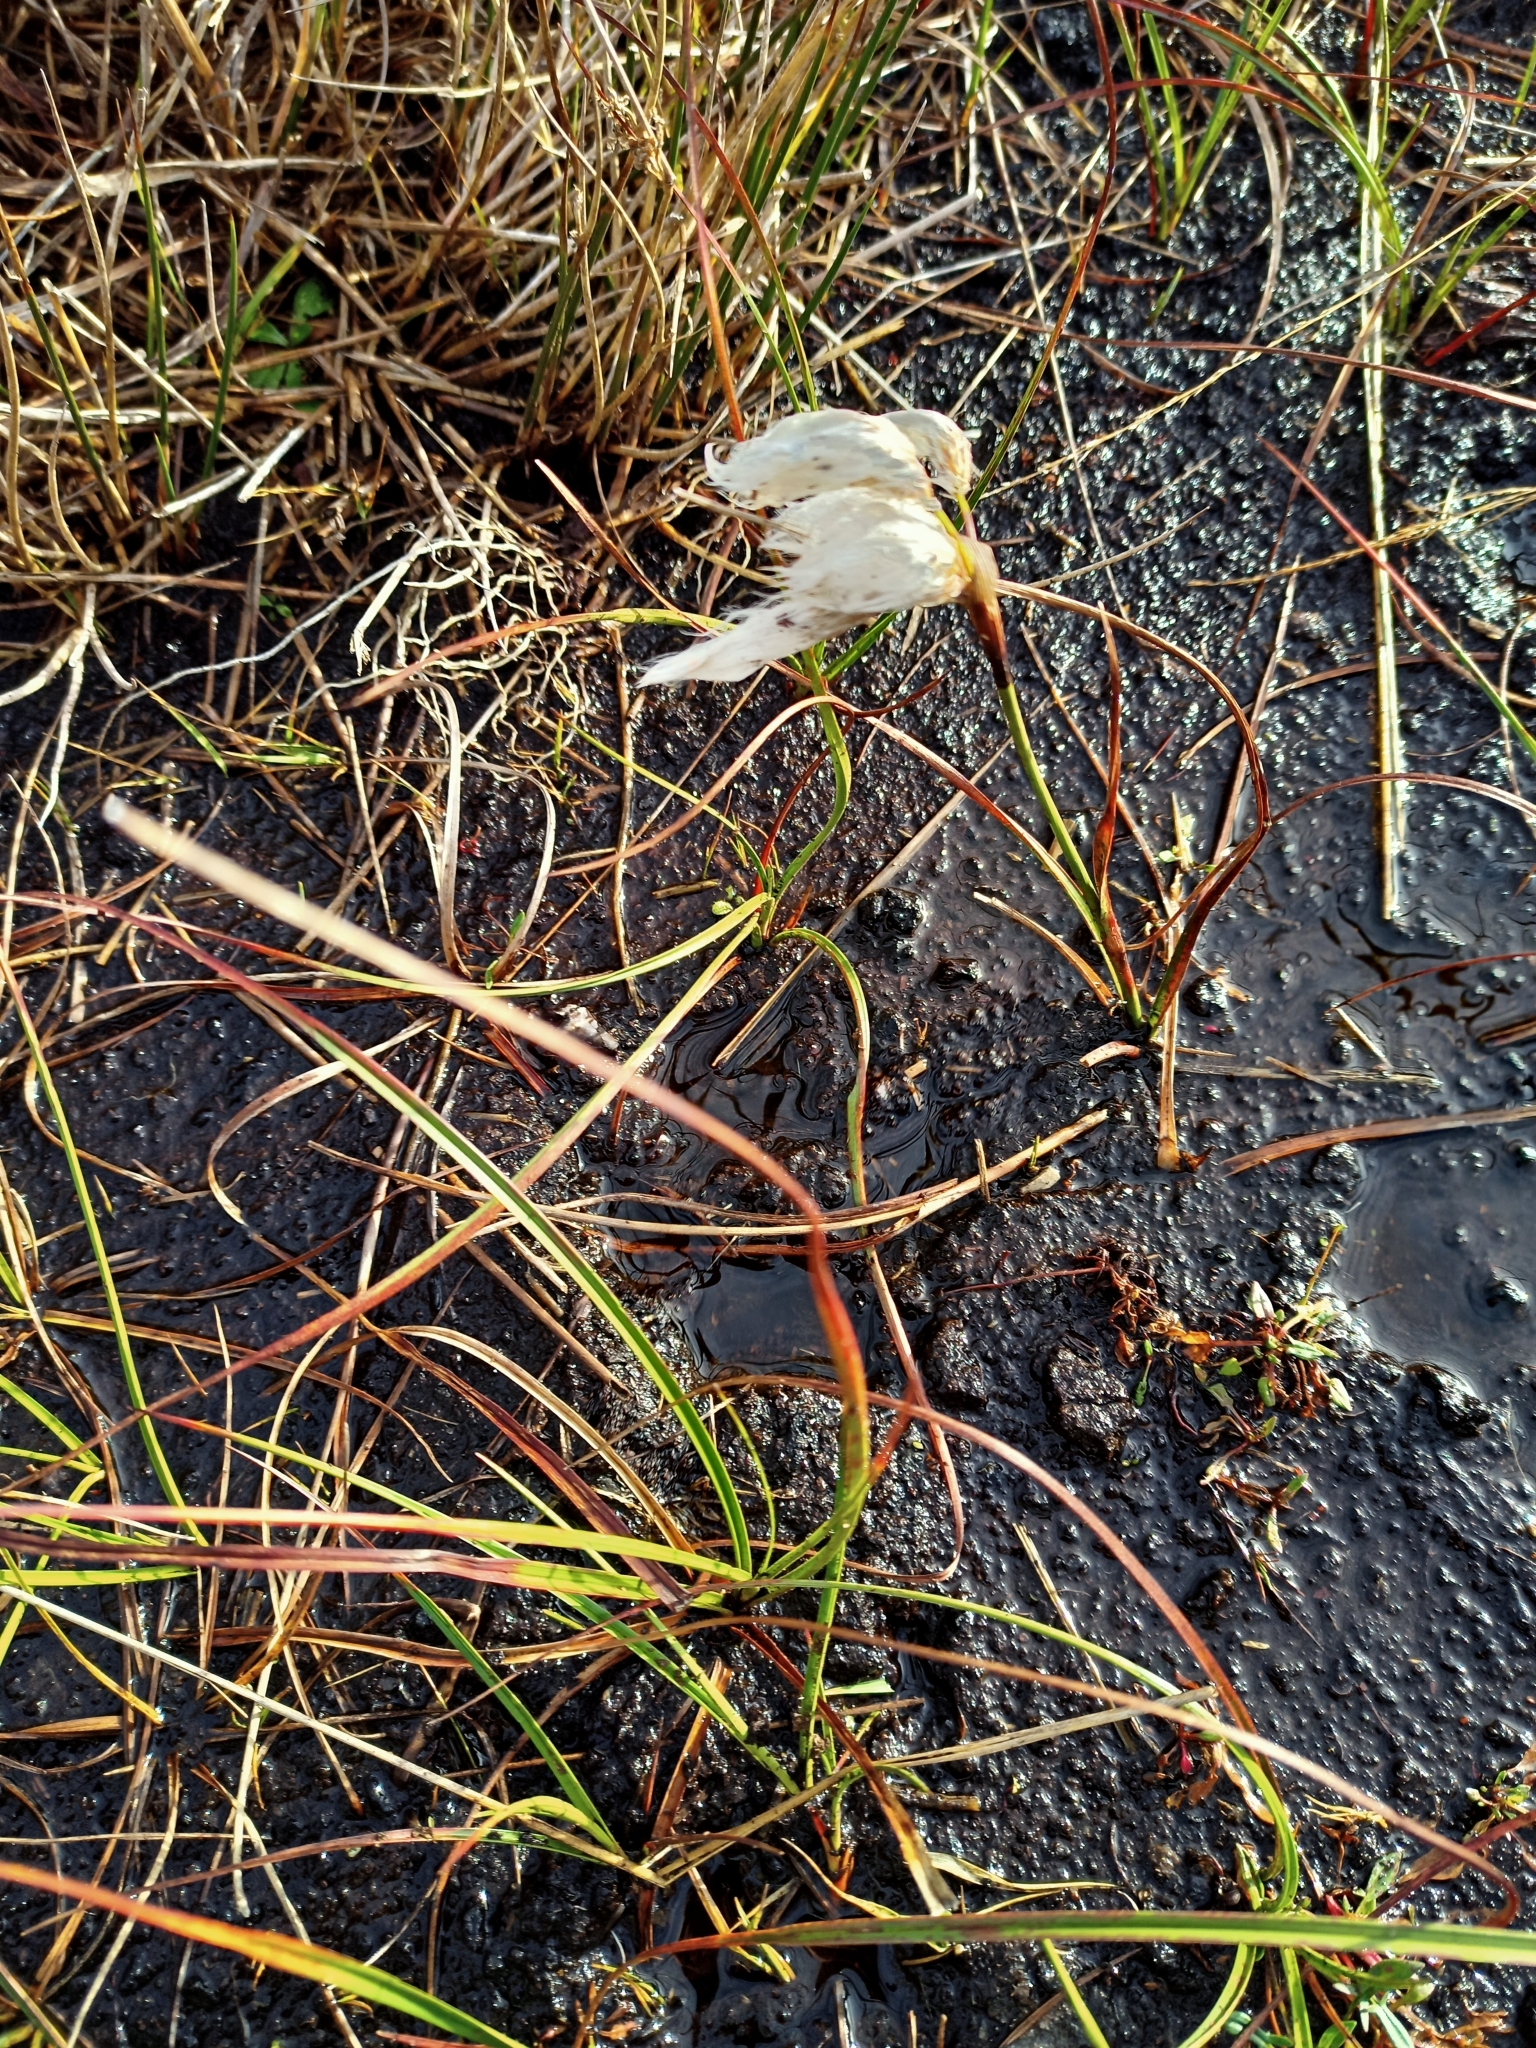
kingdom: Plantae
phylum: Tracheophyta
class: Liliopsida
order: Poales
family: Cyperaceae
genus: Eriophorum
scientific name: Eriophorum angustifolium
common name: Common cottongrass
